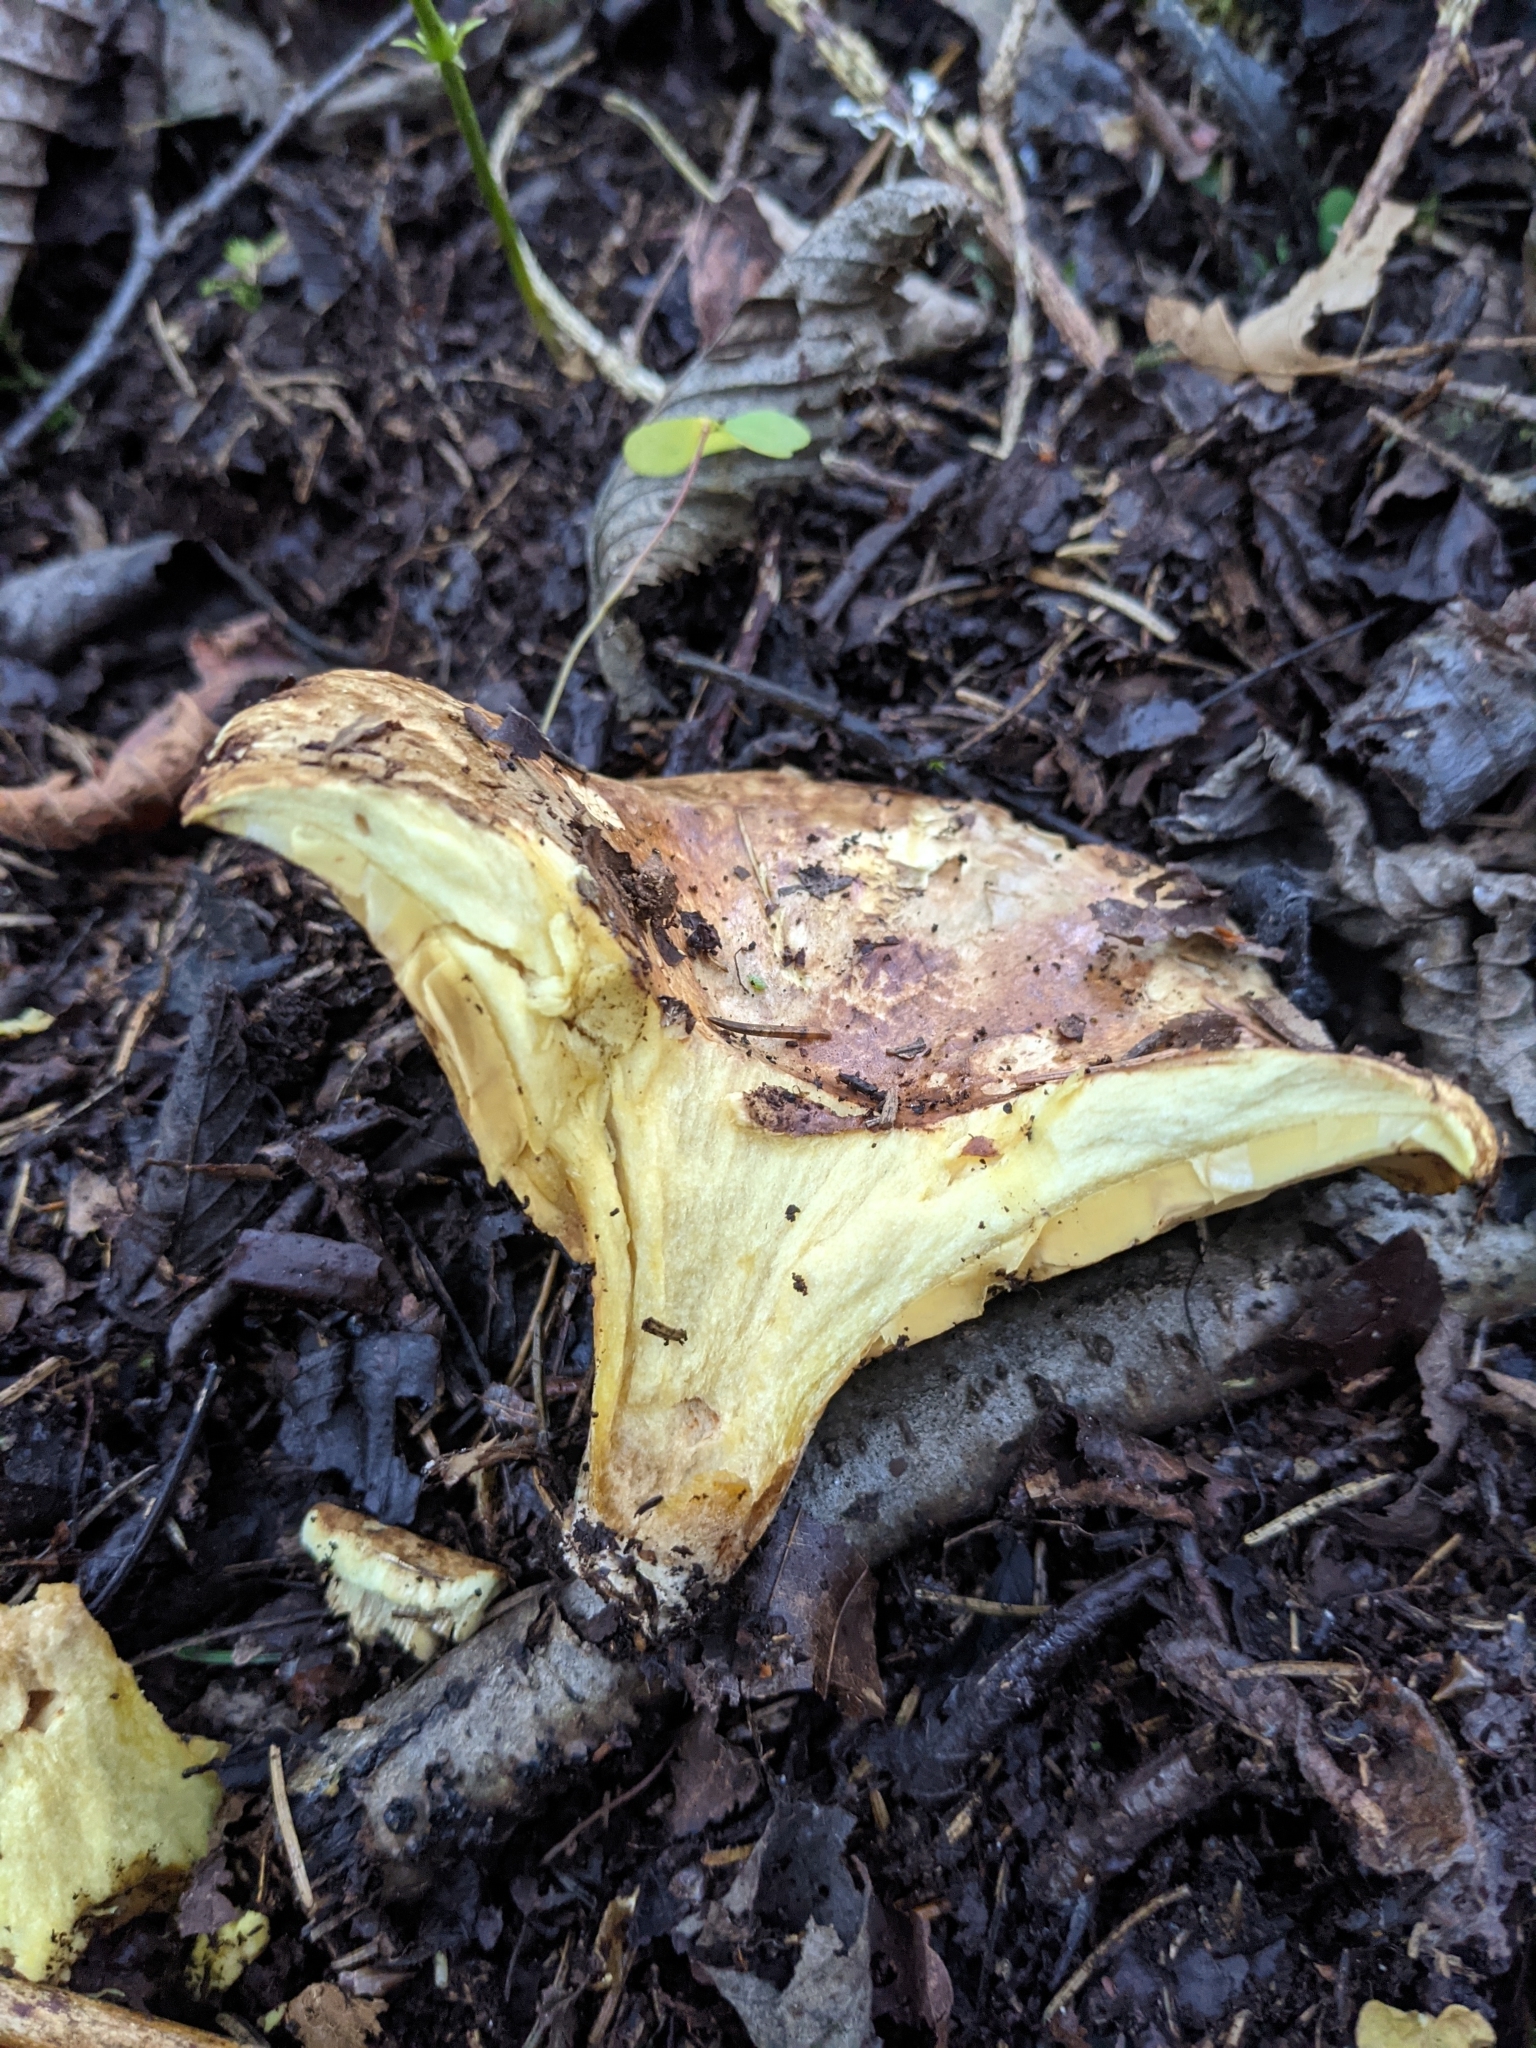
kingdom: Fungi
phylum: Basidiomycota
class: Agaricomycetes
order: Russulales
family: Russulaceae
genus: Lactarius
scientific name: Lactarius scrobiculatus
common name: Spotted milkcap
